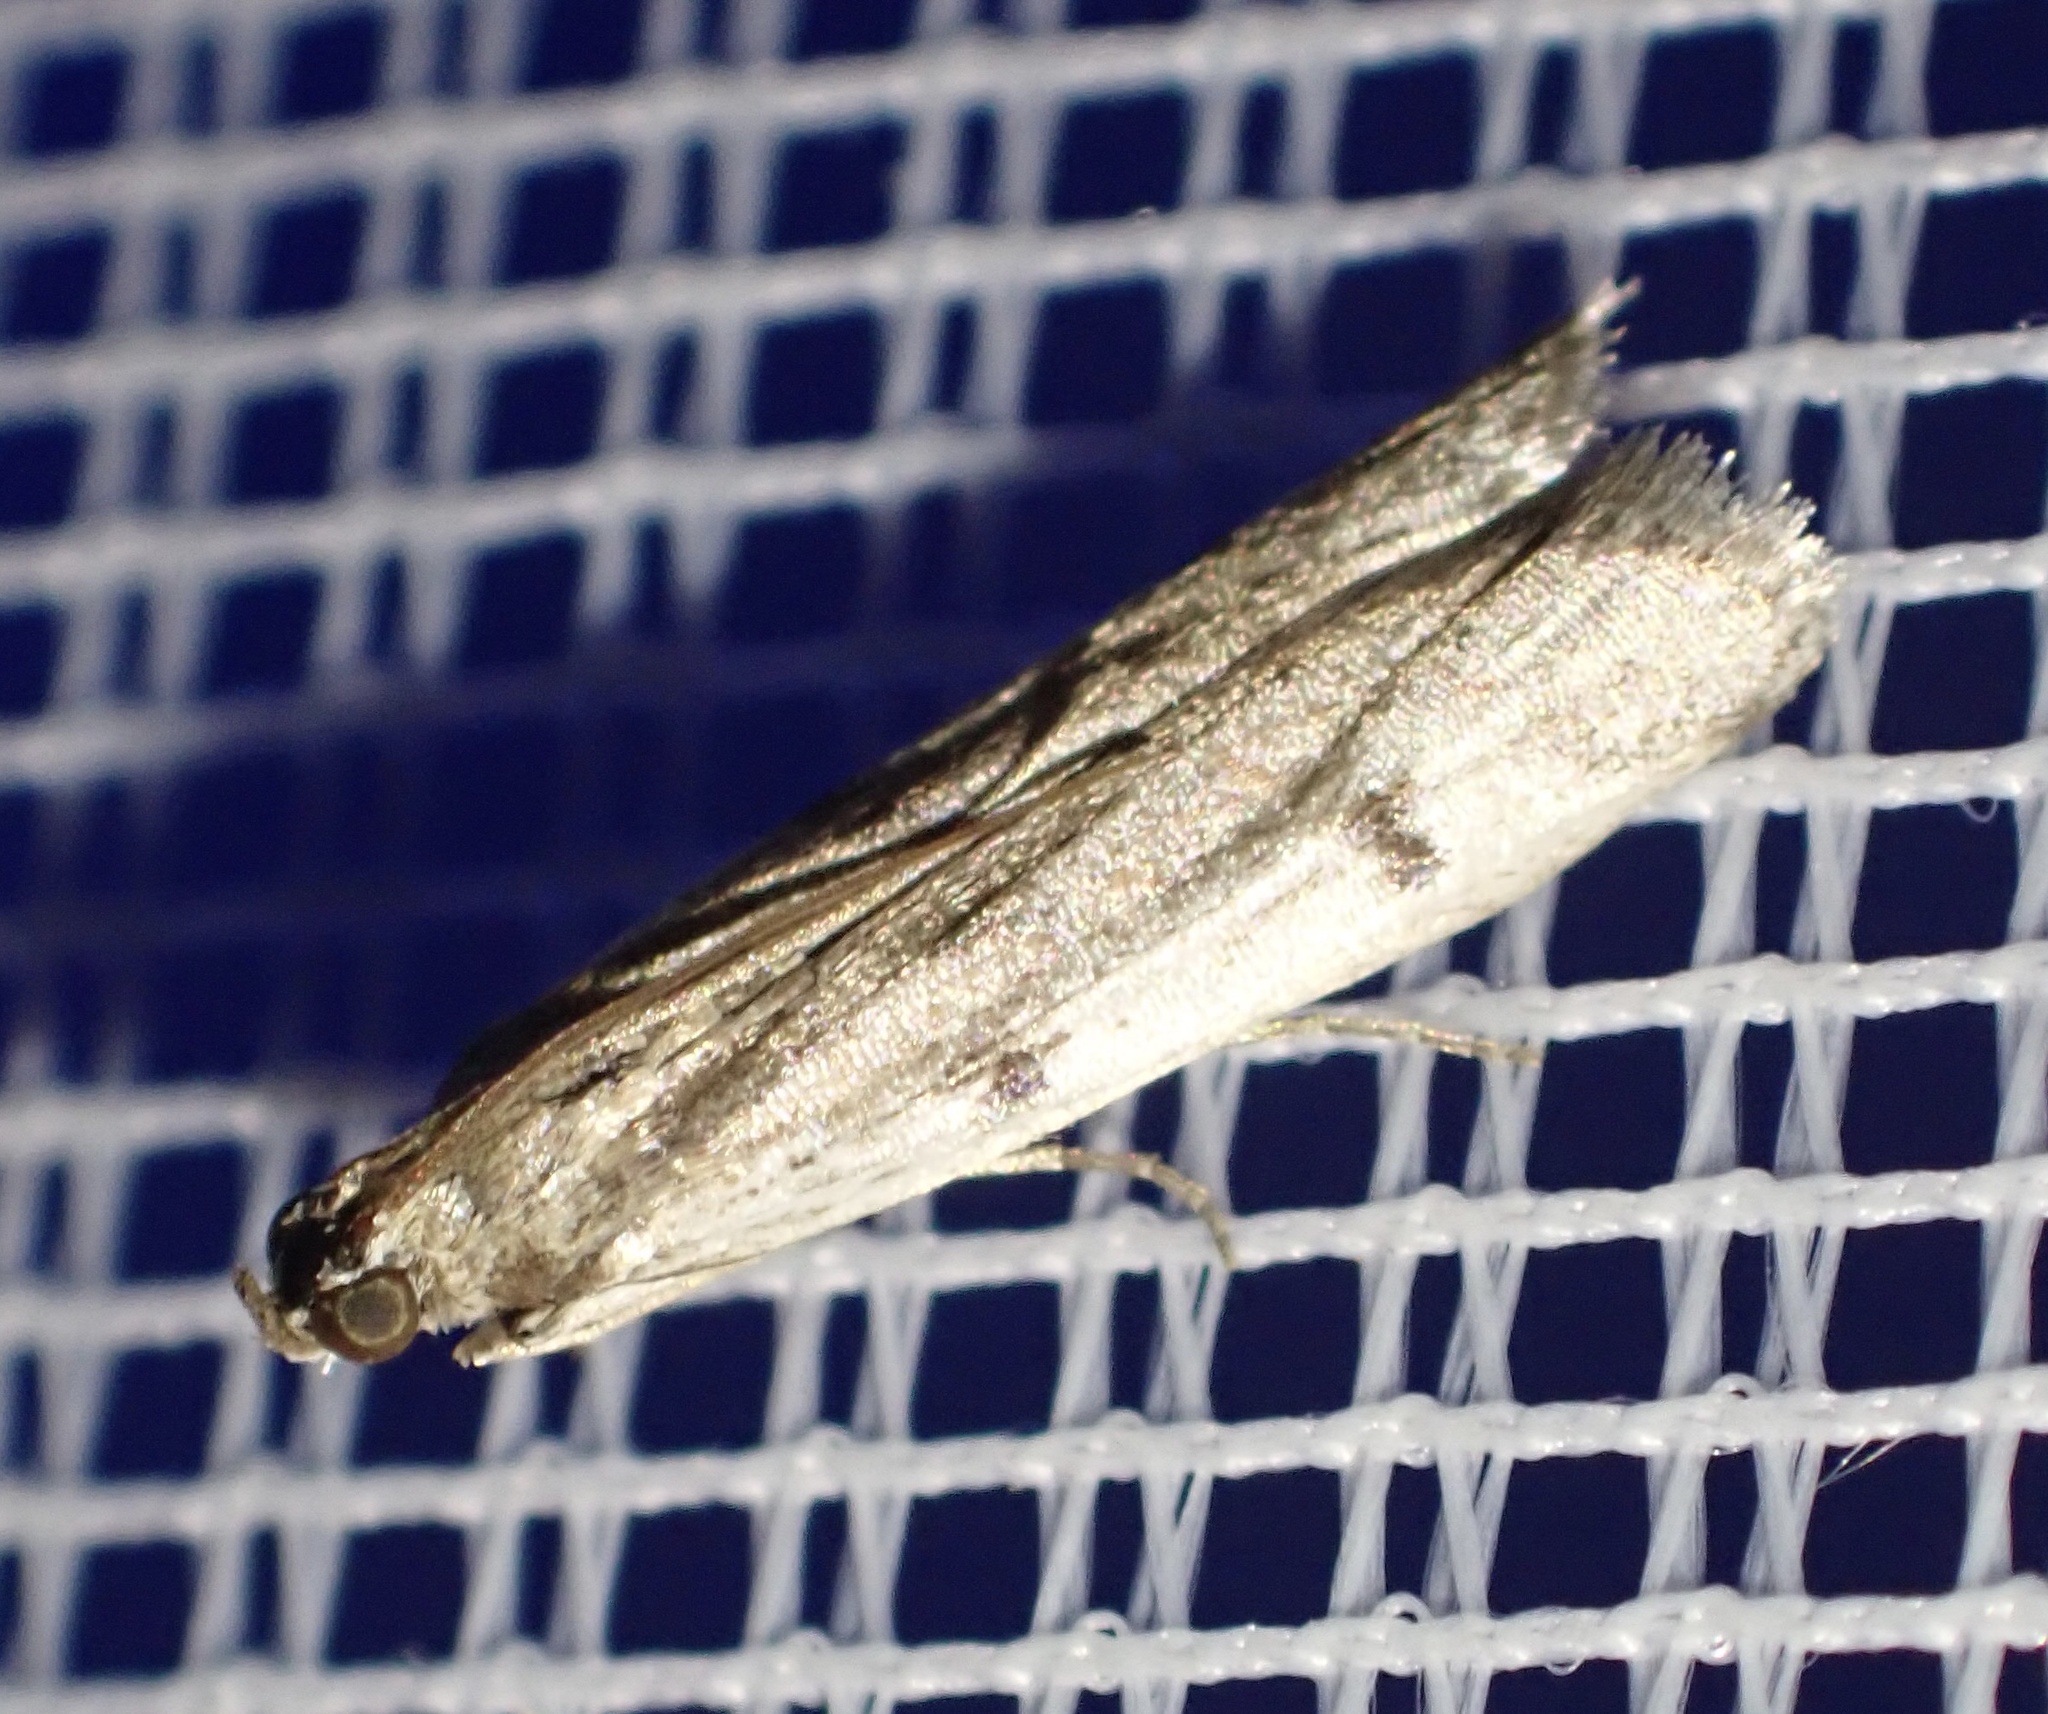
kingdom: Animalia
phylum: Arthropoda
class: Insecta
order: Lepidoptera
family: Pyralidae
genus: Phycitodes
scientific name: Phycitodes binaevella
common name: Ermine knot-horn
